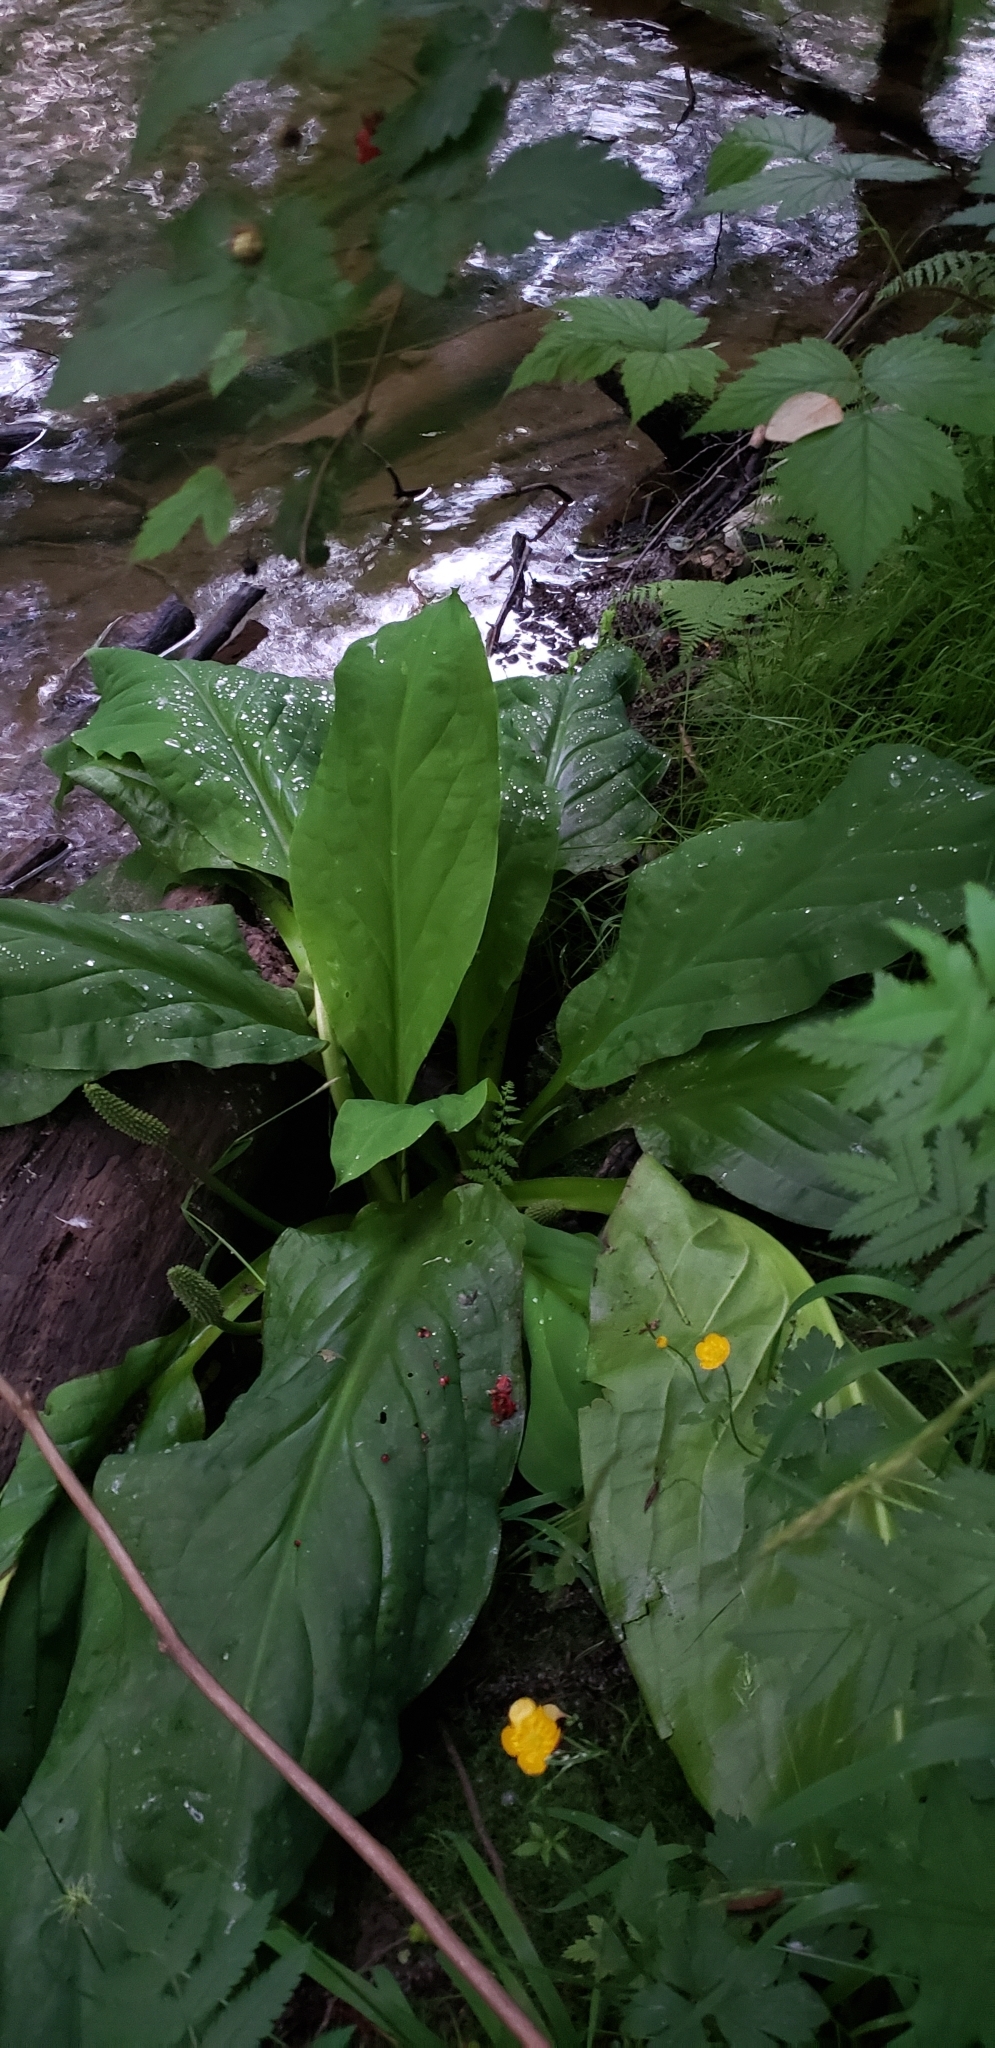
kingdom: Plantae
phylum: Tracheophyta
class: Liliopsida
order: Alismatales
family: Araceae
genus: Lysichiton
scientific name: Lysichiton americanus
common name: American skunk cabbage
